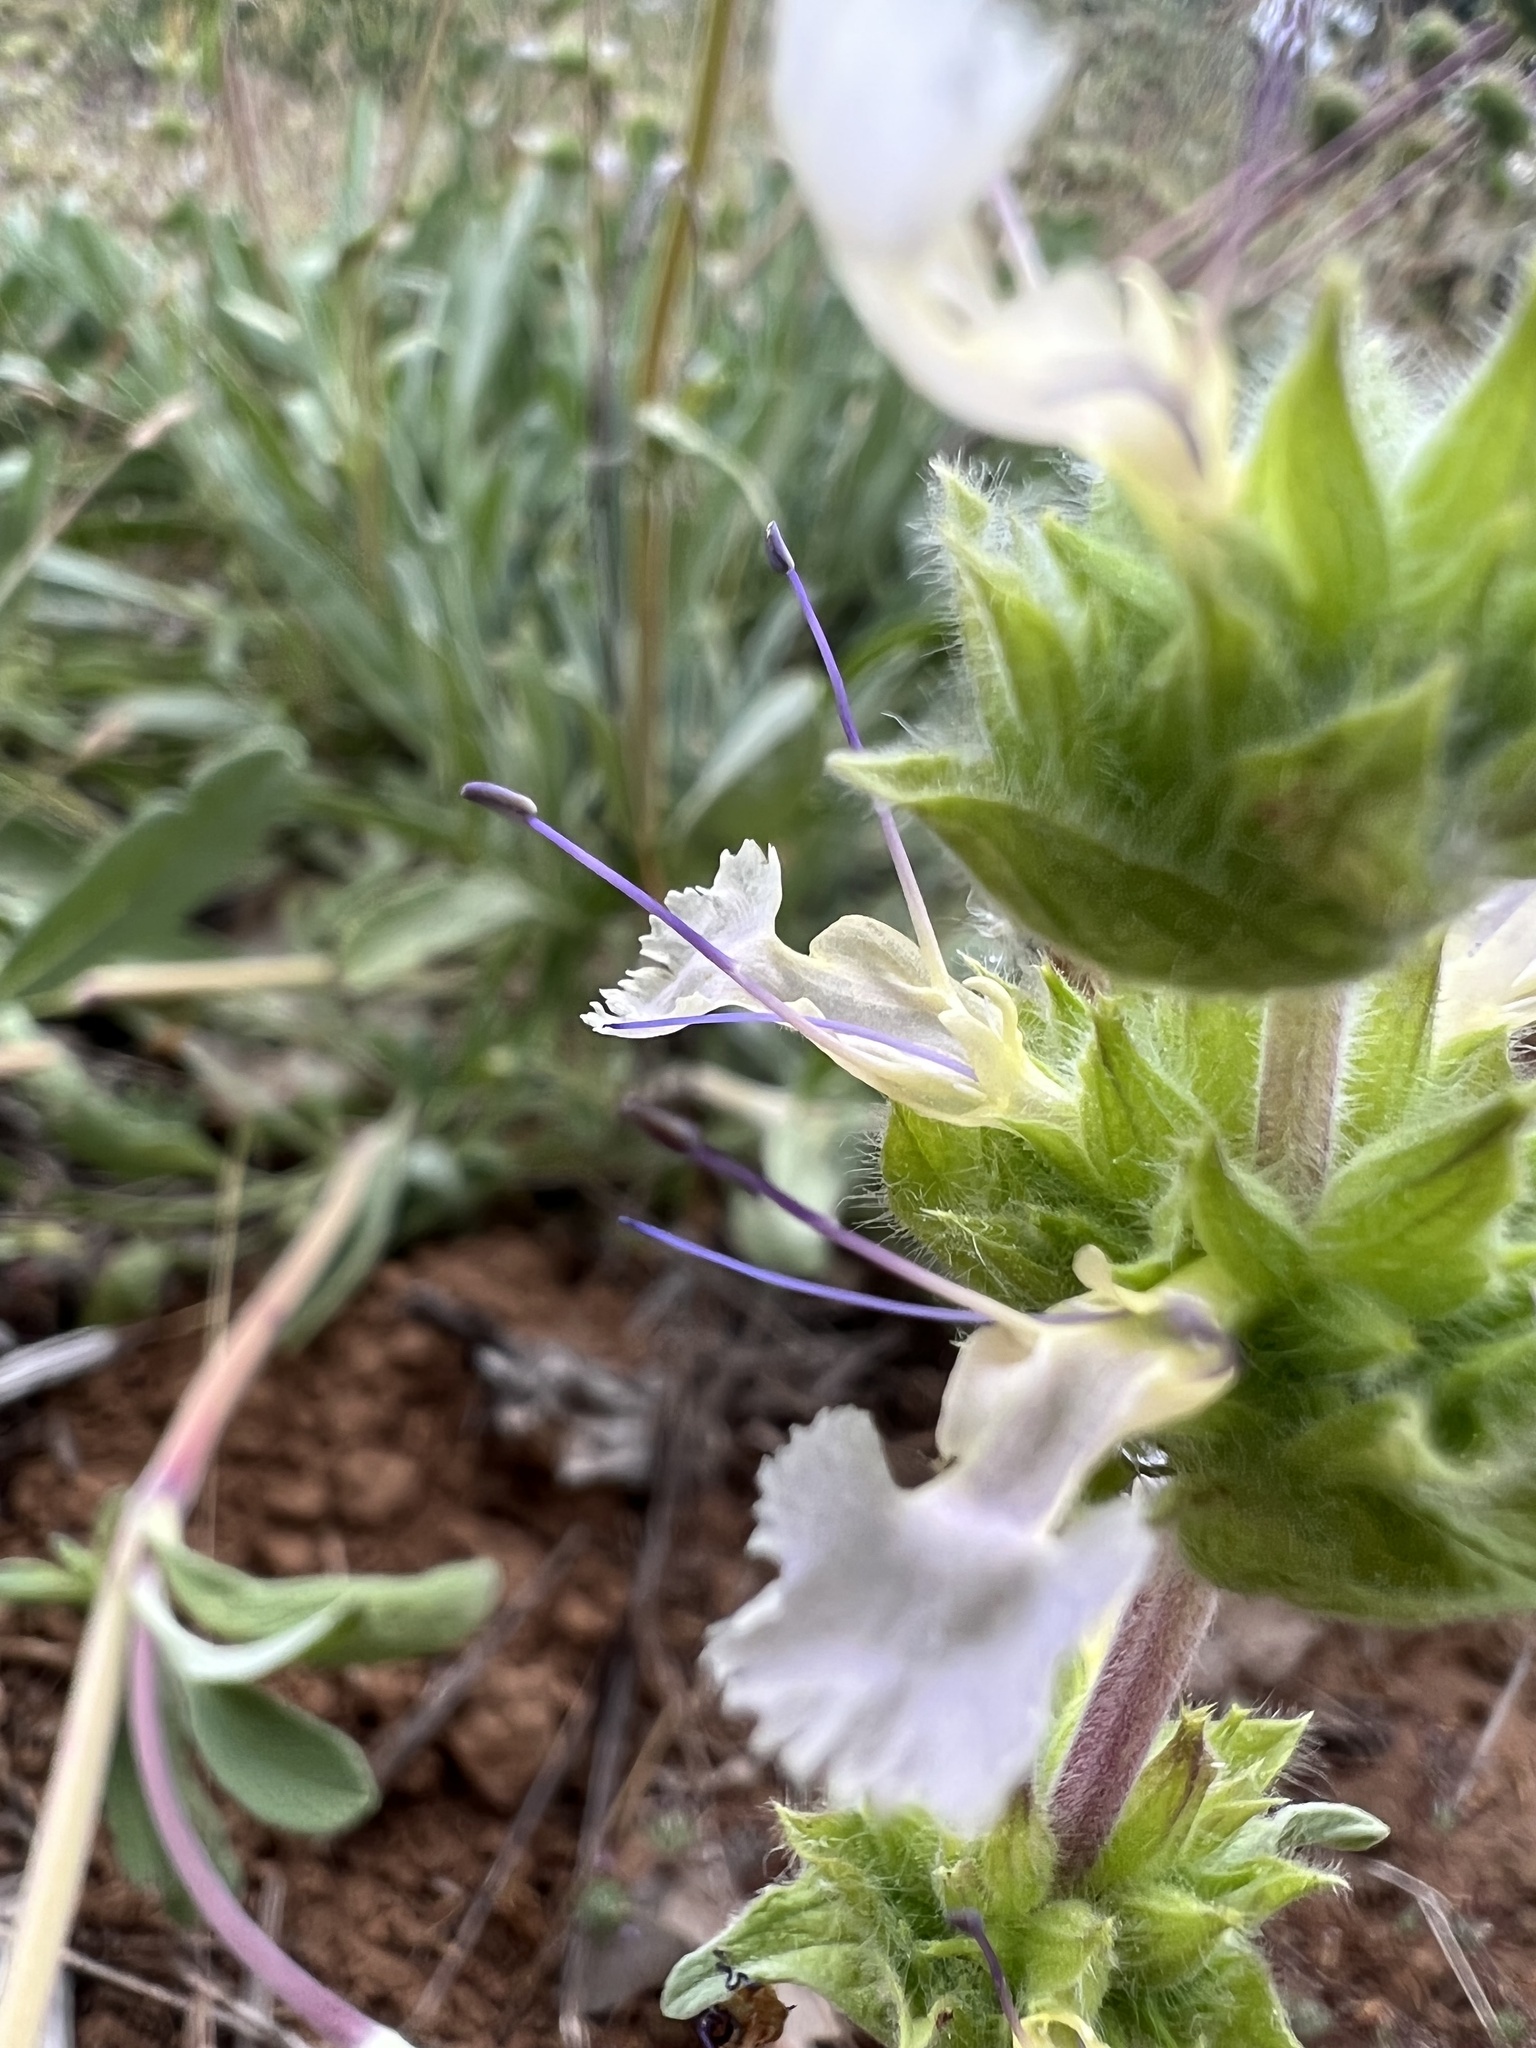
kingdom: Plantae
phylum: Tracheophyta
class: Magnoliopsida
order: Lamiales
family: Lamiaceae
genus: Salvia
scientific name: Salvia sonomensis
